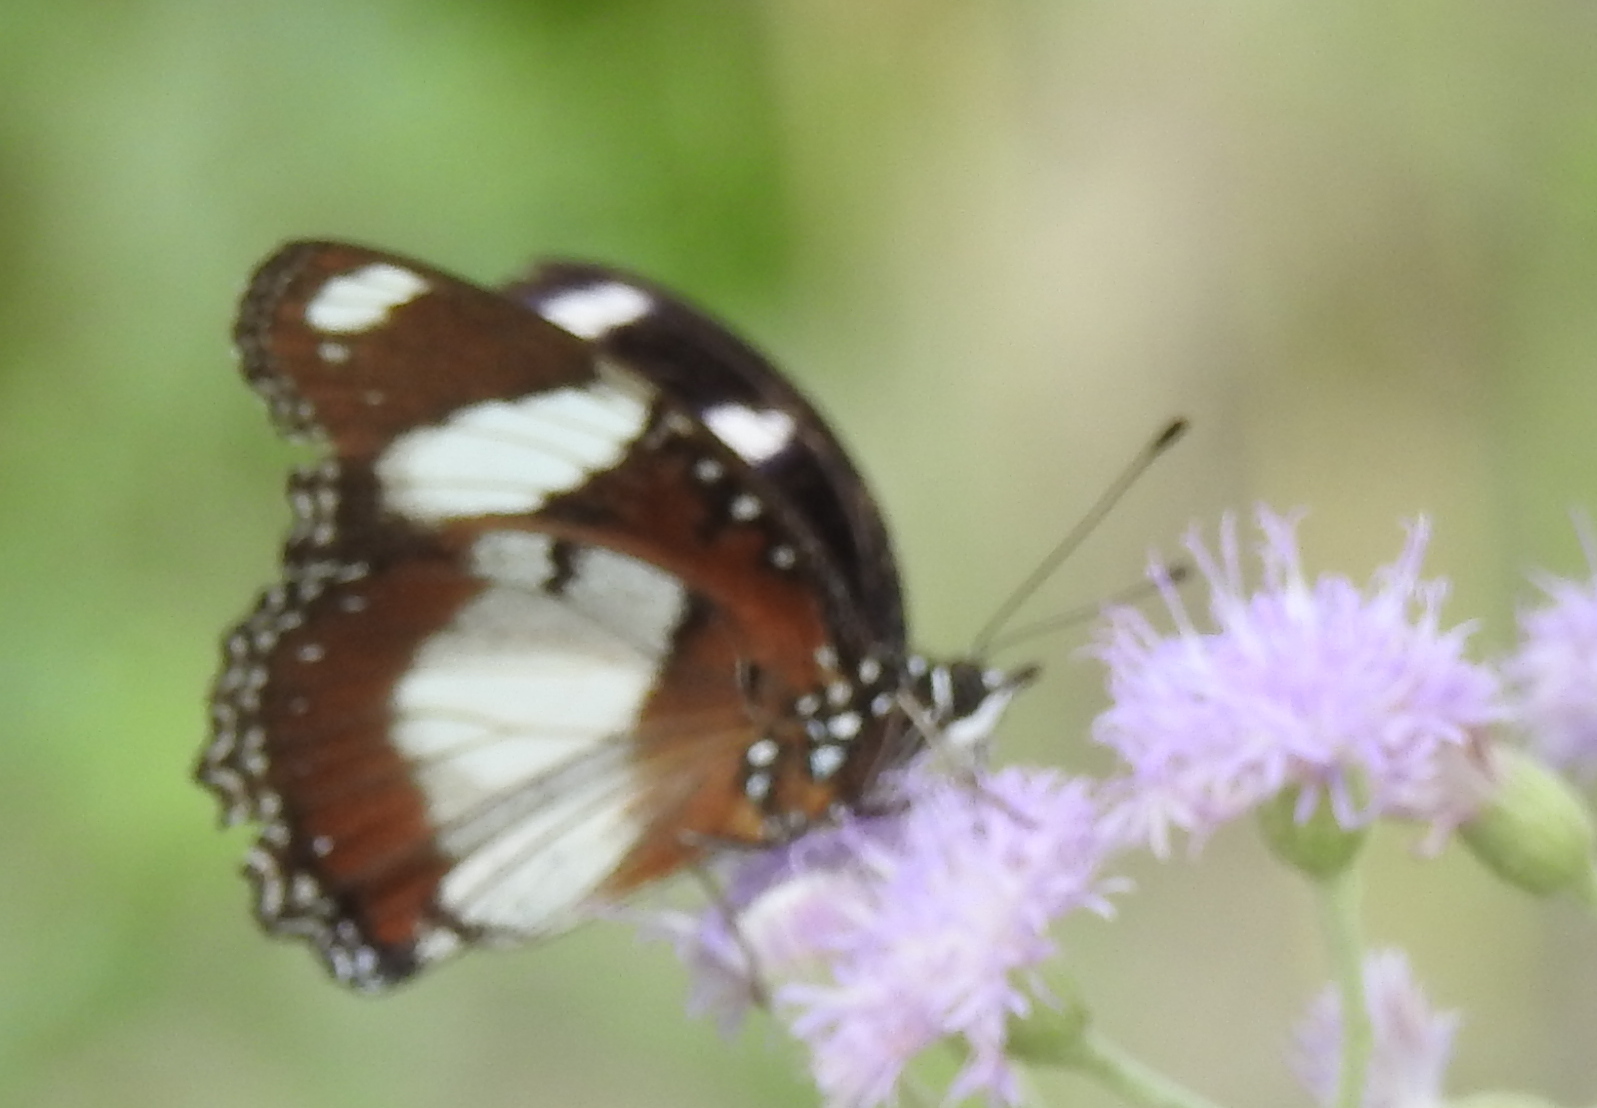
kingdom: Animalia
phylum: Arthropoda
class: Insecta
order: Lepidoptera
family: Nymphalidae
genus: Hypolimnas
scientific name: Hypolimnas misippus
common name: False plain tiger
